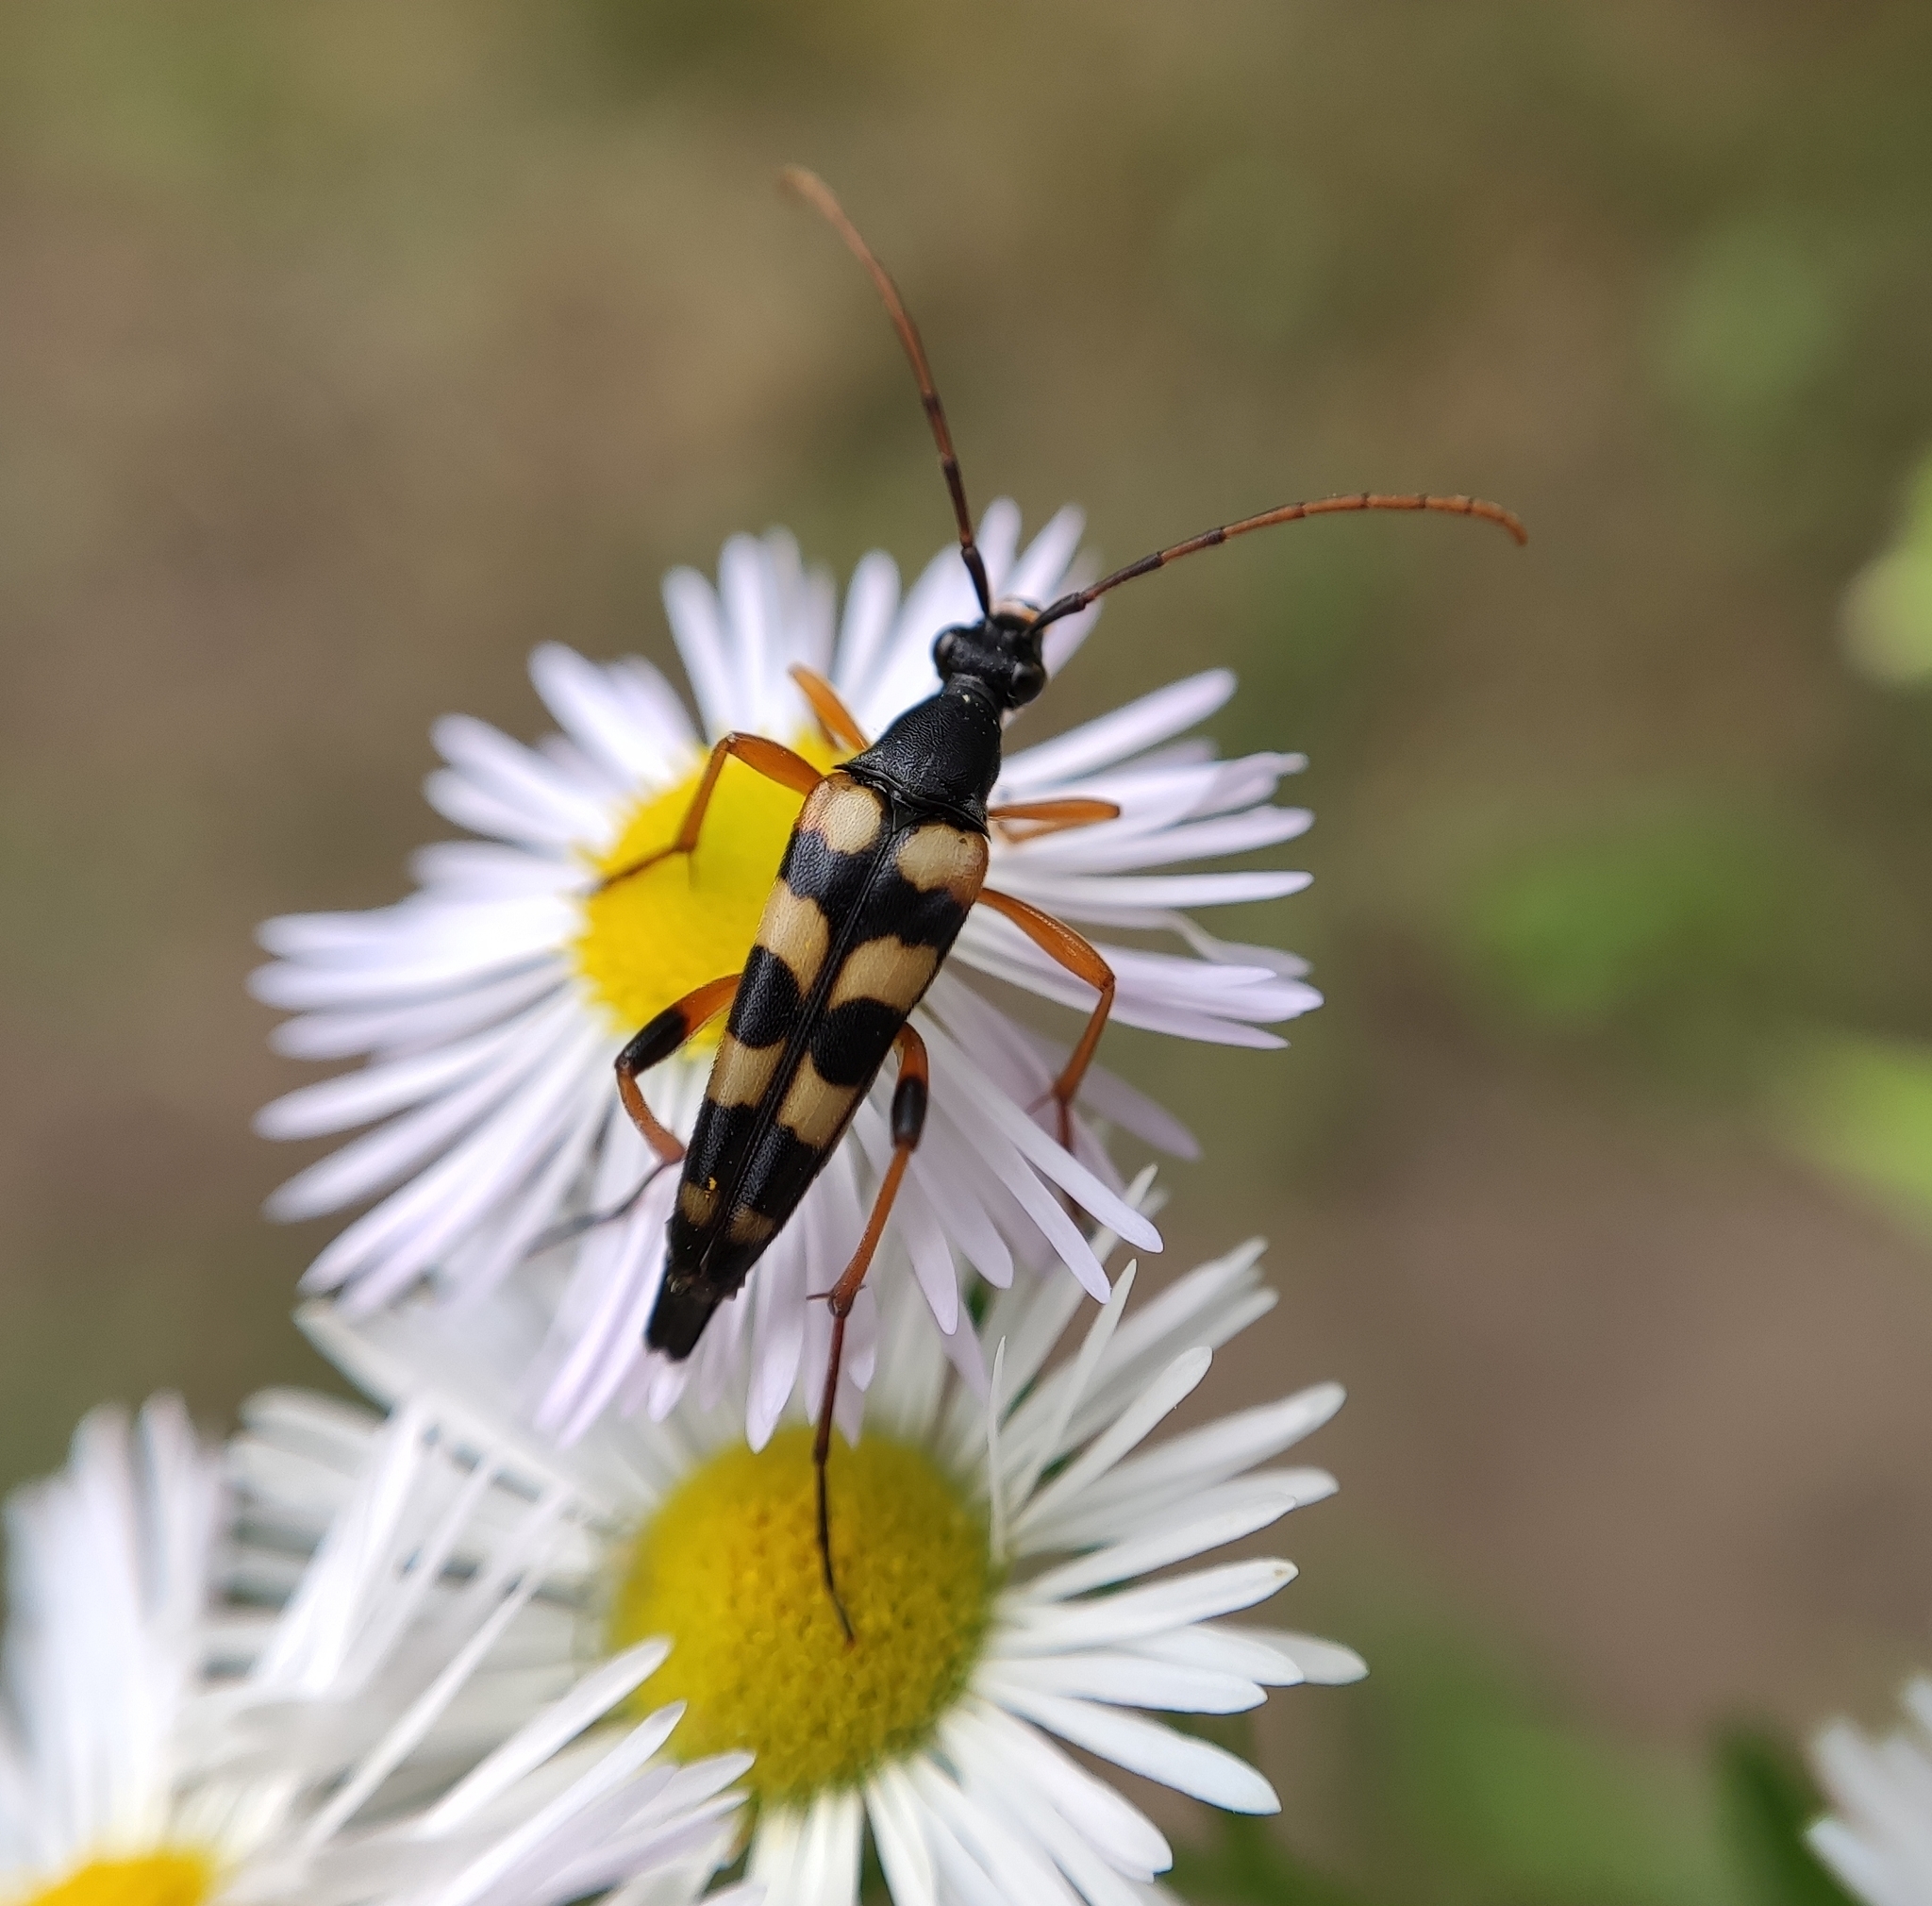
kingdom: Animalia
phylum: Arthropoda
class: Insecta
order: Coleoptera
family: Cerambycidae
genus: Strangalia
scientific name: Strangalia attenuata
